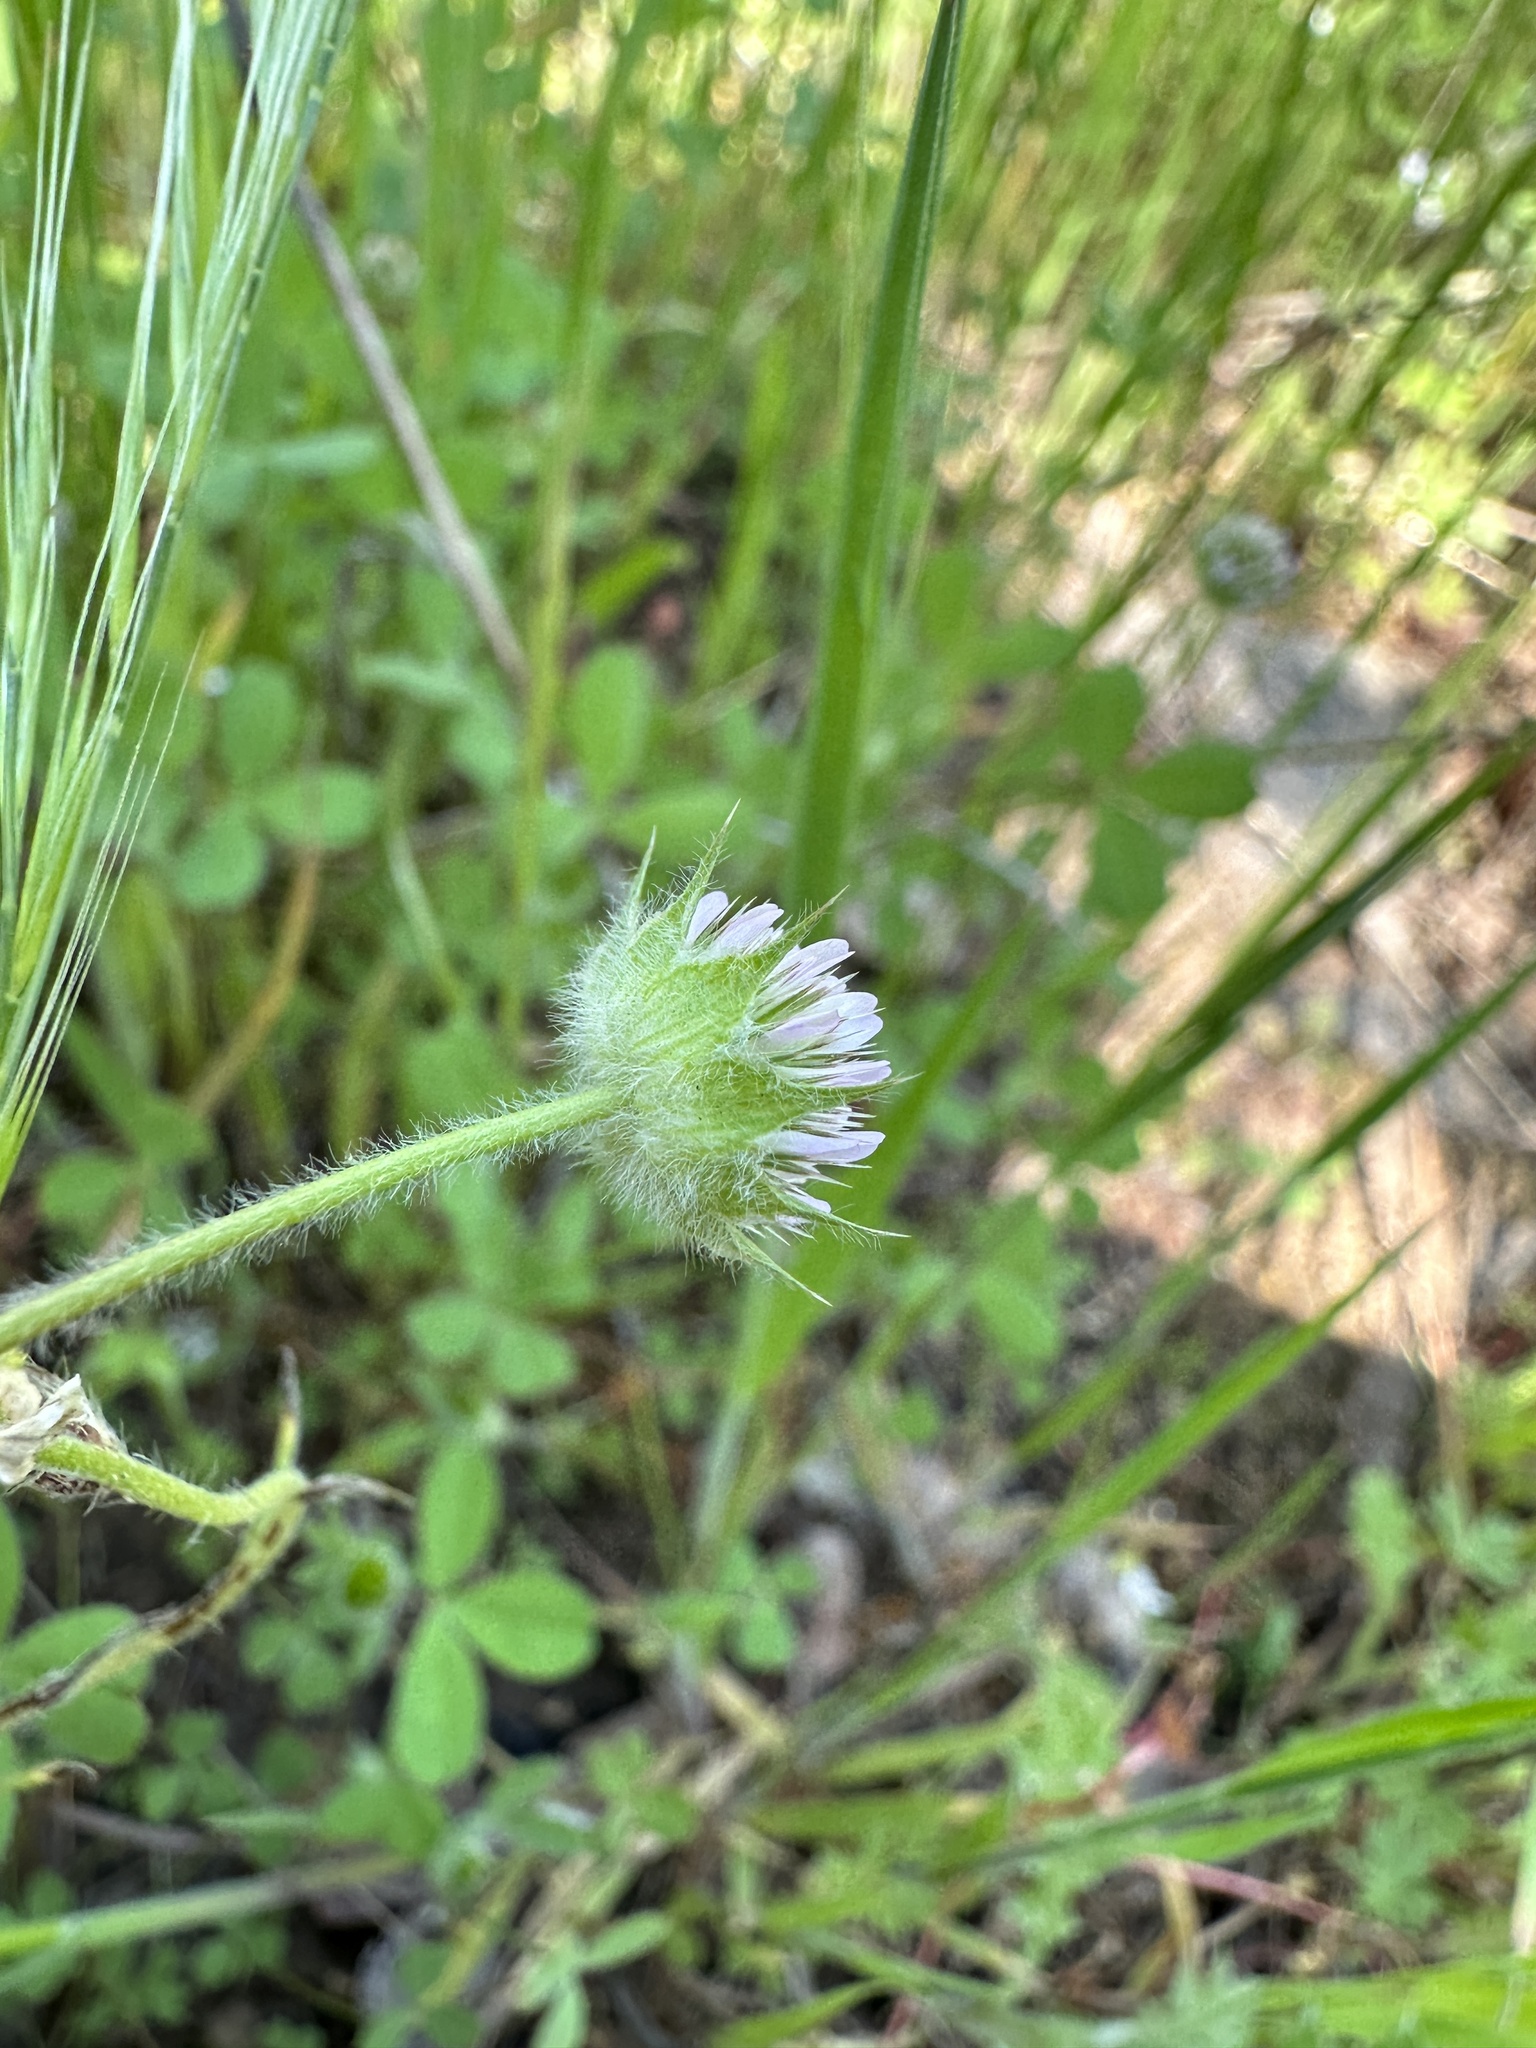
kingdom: Plantae
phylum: Tracheophyta
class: Magnoliopsida
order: Fabales
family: Fabaceae
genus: Trifolium
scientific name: Trifolium microcephalum
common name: Maiden clover
